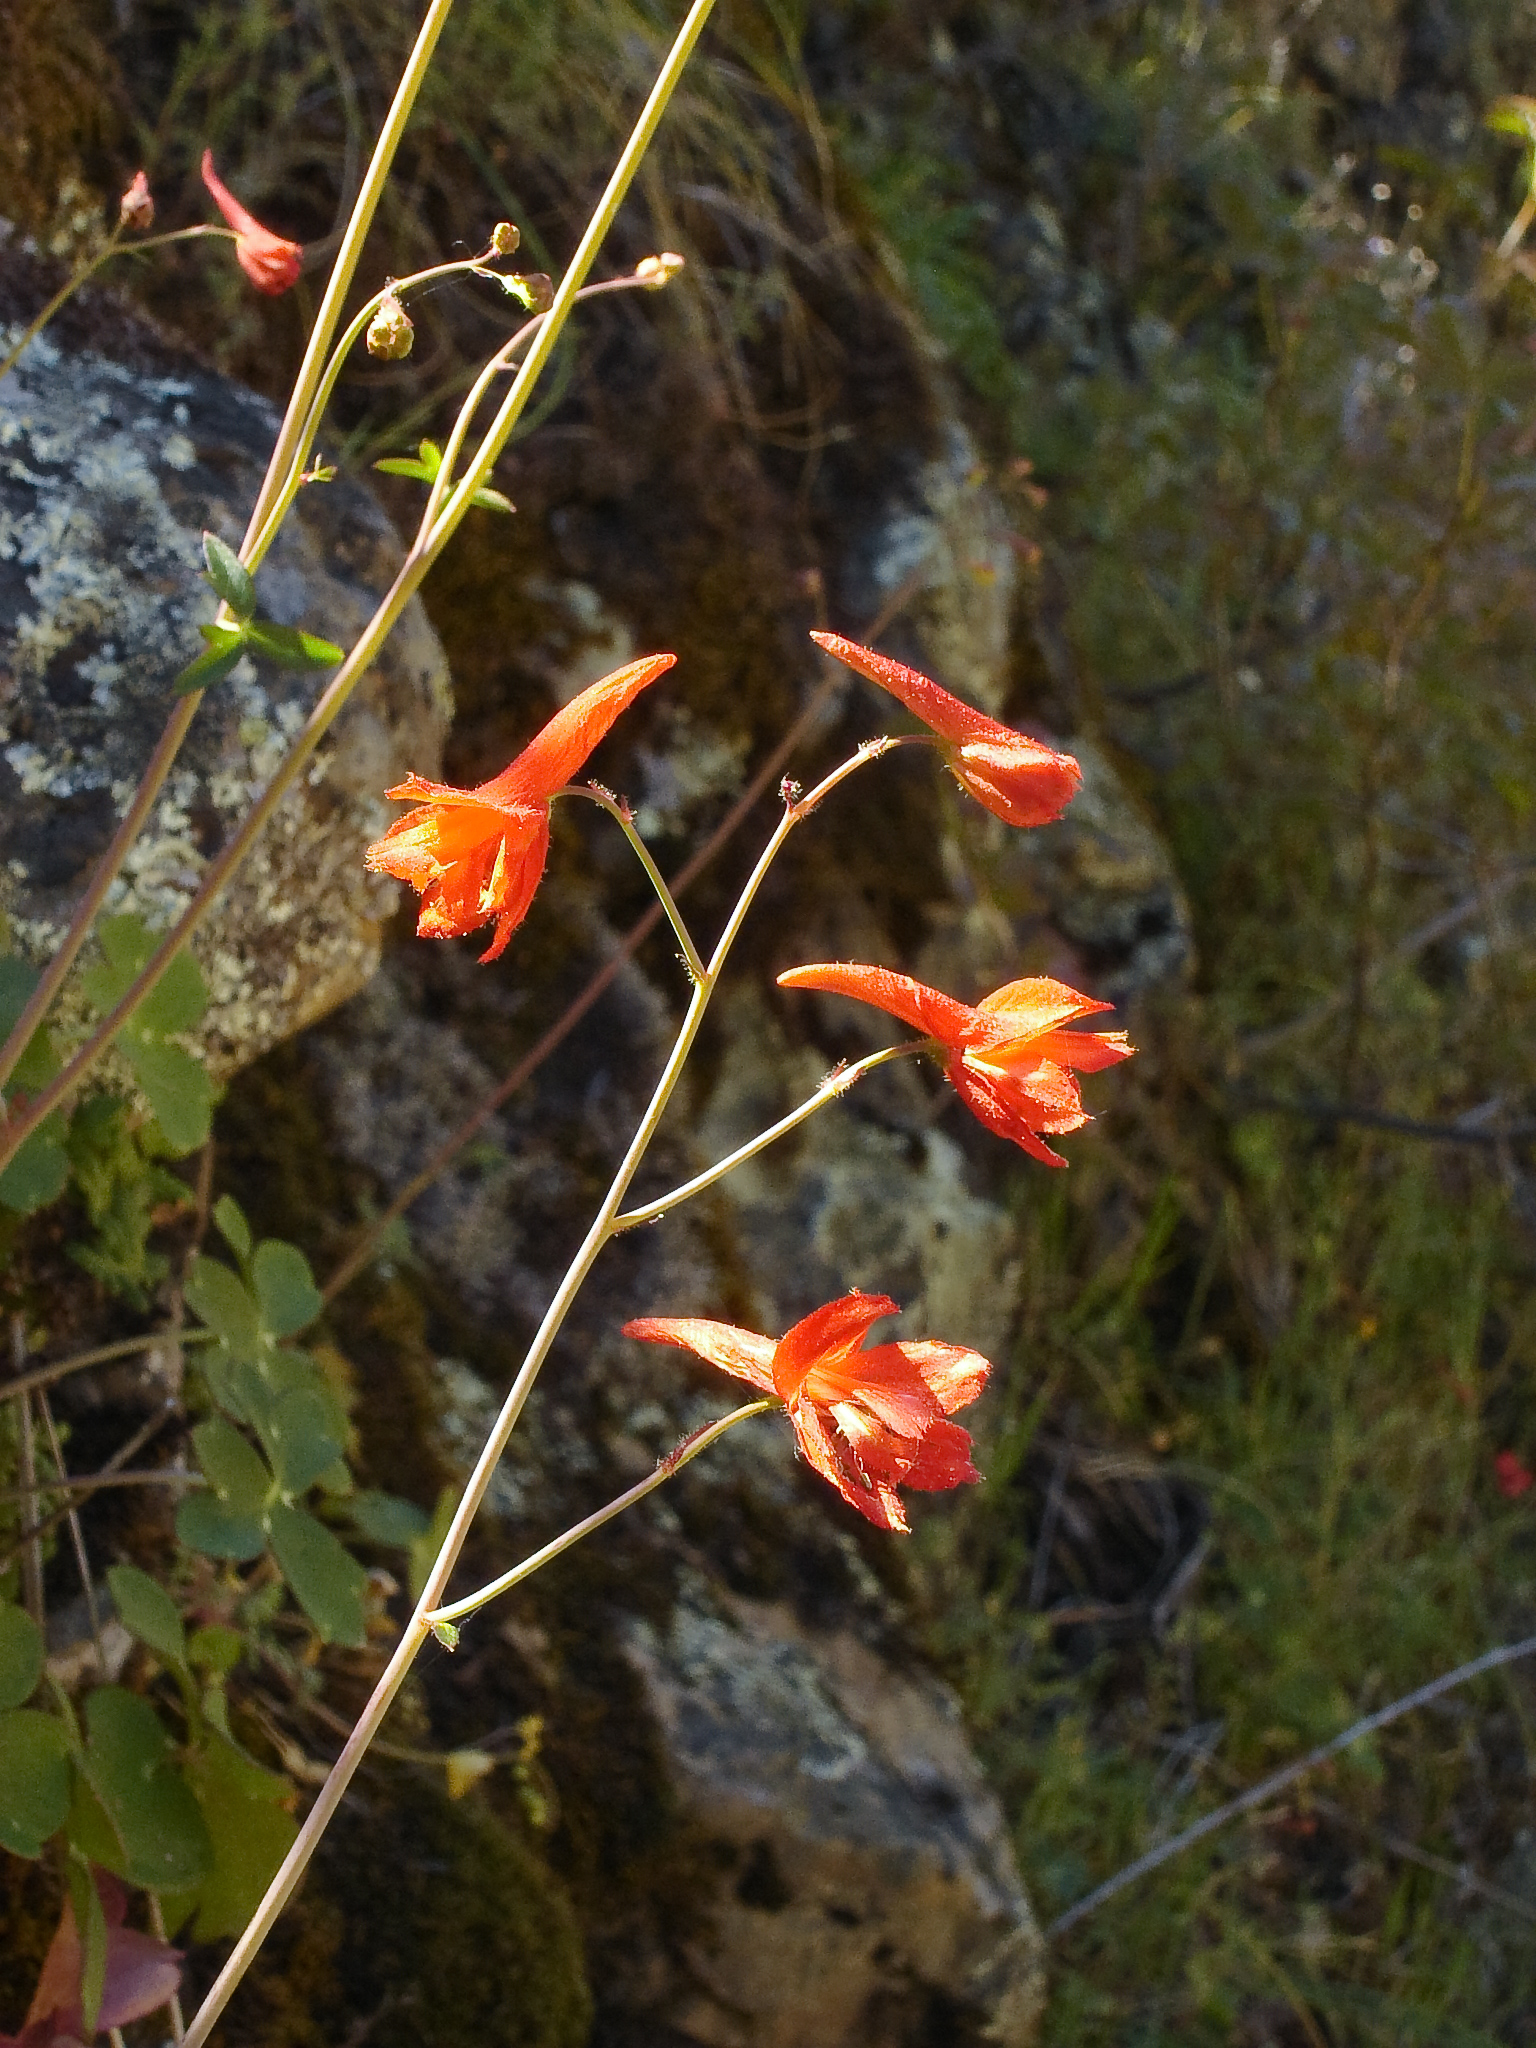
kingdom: Plantae
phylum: Tracheophyta
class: Magnoliopsida
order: Ranunculales
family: Ranunculaceae
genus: Delphinium
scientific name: Delphinium nudicaule
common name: Red larkspur
